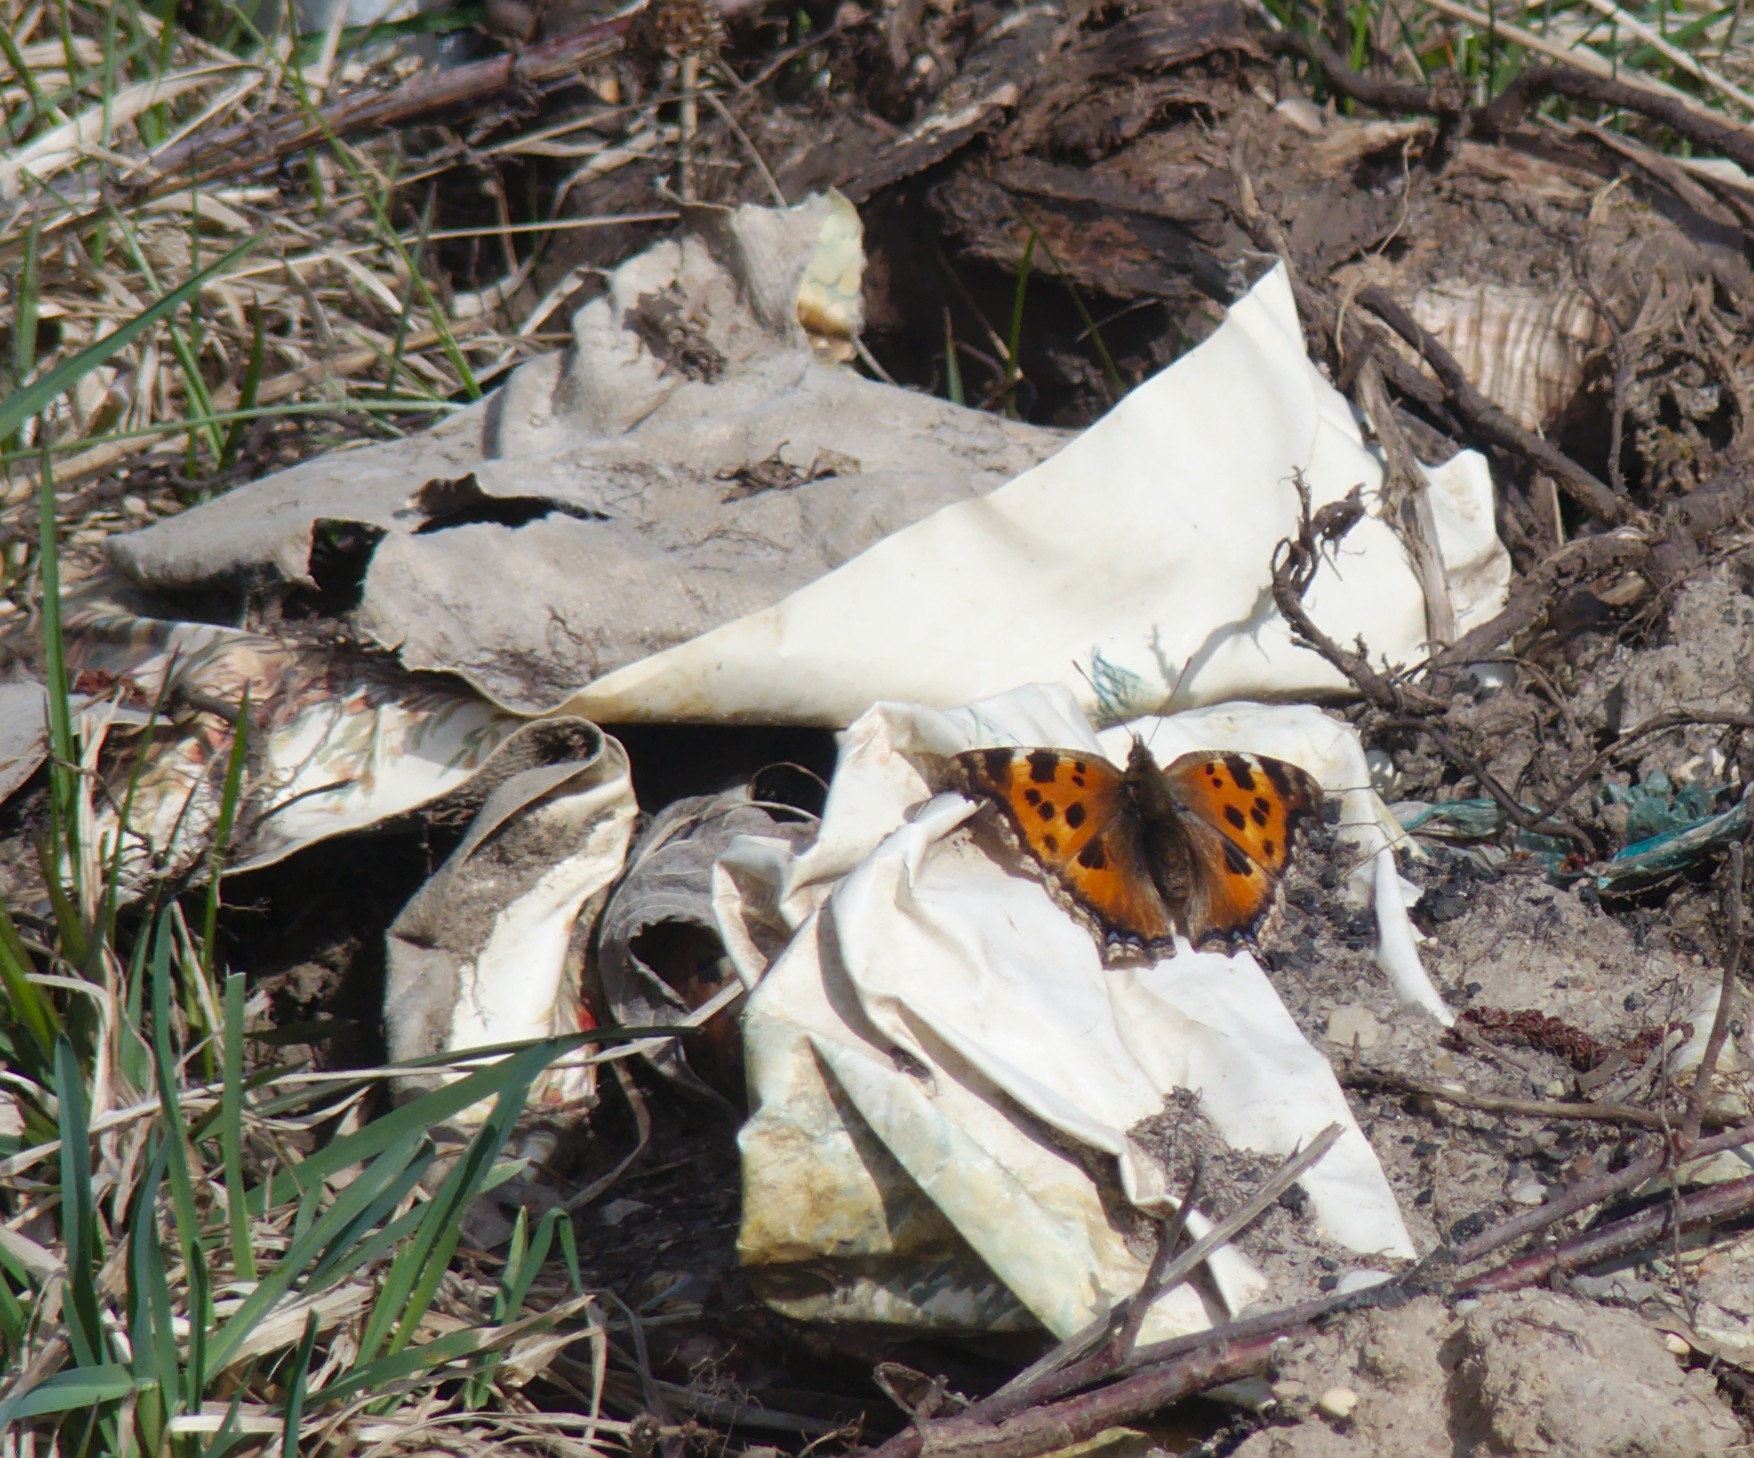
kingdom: Animalia
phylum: Arthropoda
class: Insecta
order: Lepidoptera
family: Nymphalidae
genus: Nymphalis
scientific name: Nymphalis xanthomelas
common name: Scarce tortoiseshell
